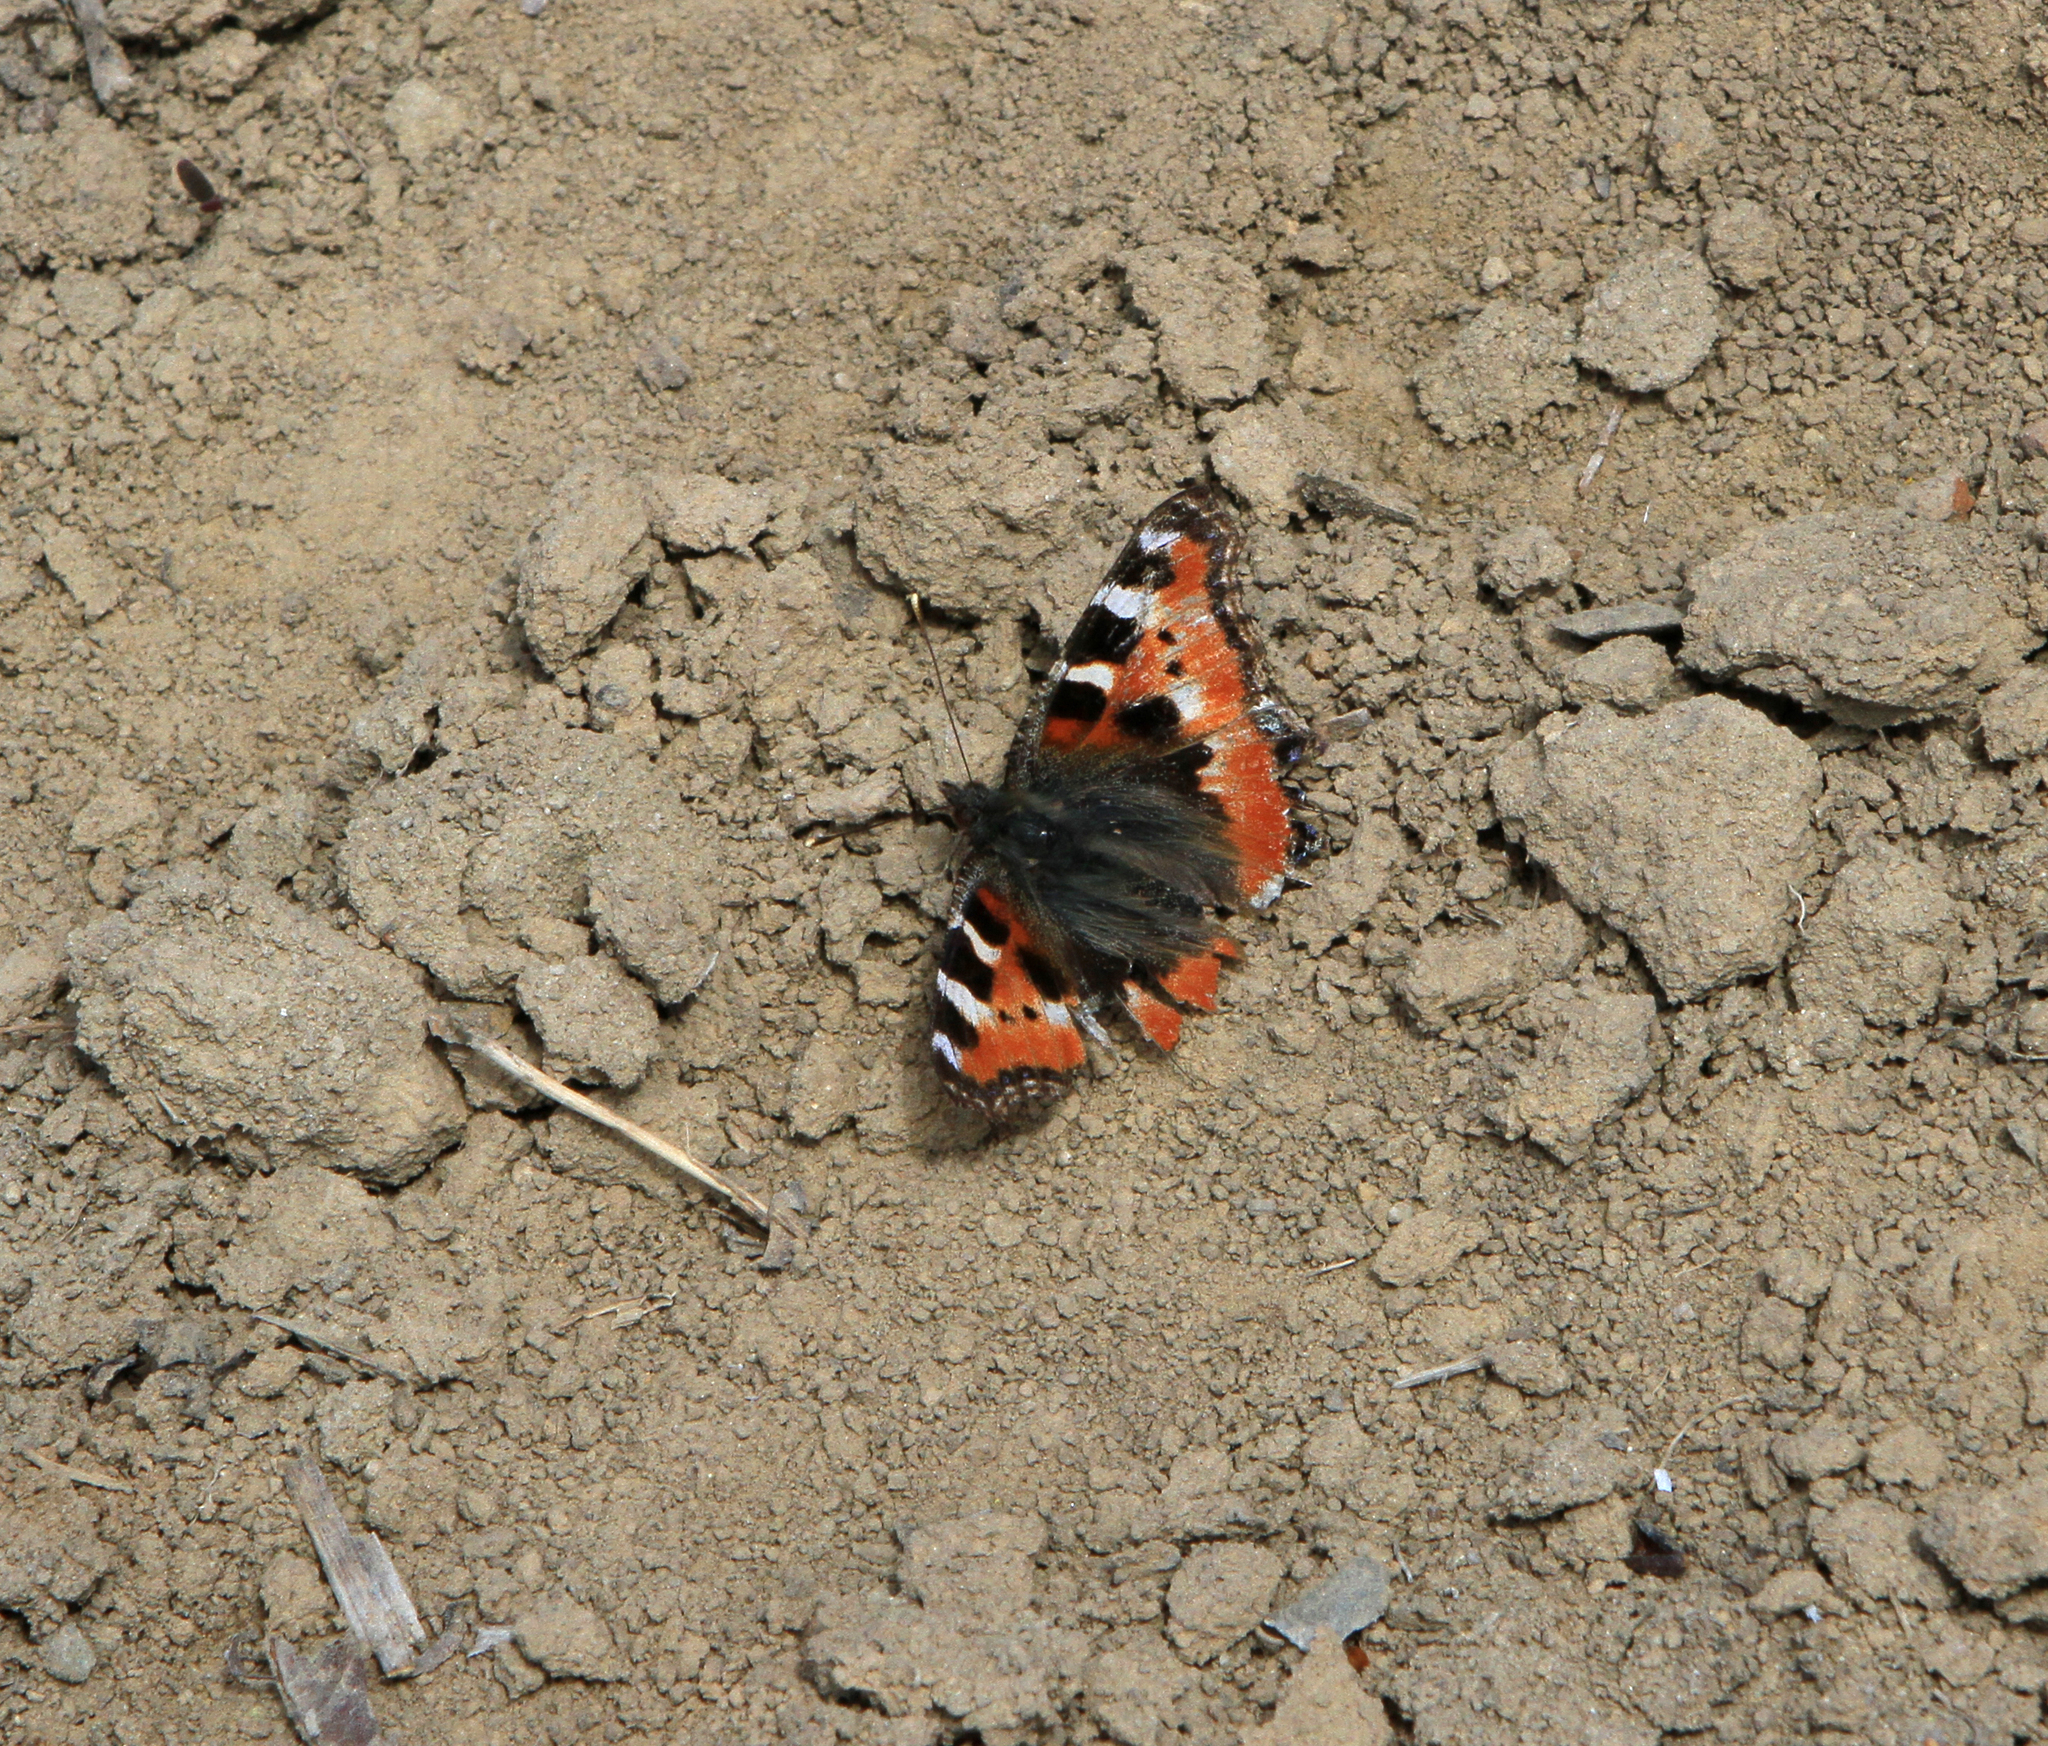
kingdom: Animalia
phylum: Arthropoda
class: Insecta
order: Lepidoptera
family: Nymphalidae
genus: Aglais
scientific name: Aglais urticae
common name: Small tortoiseshell
